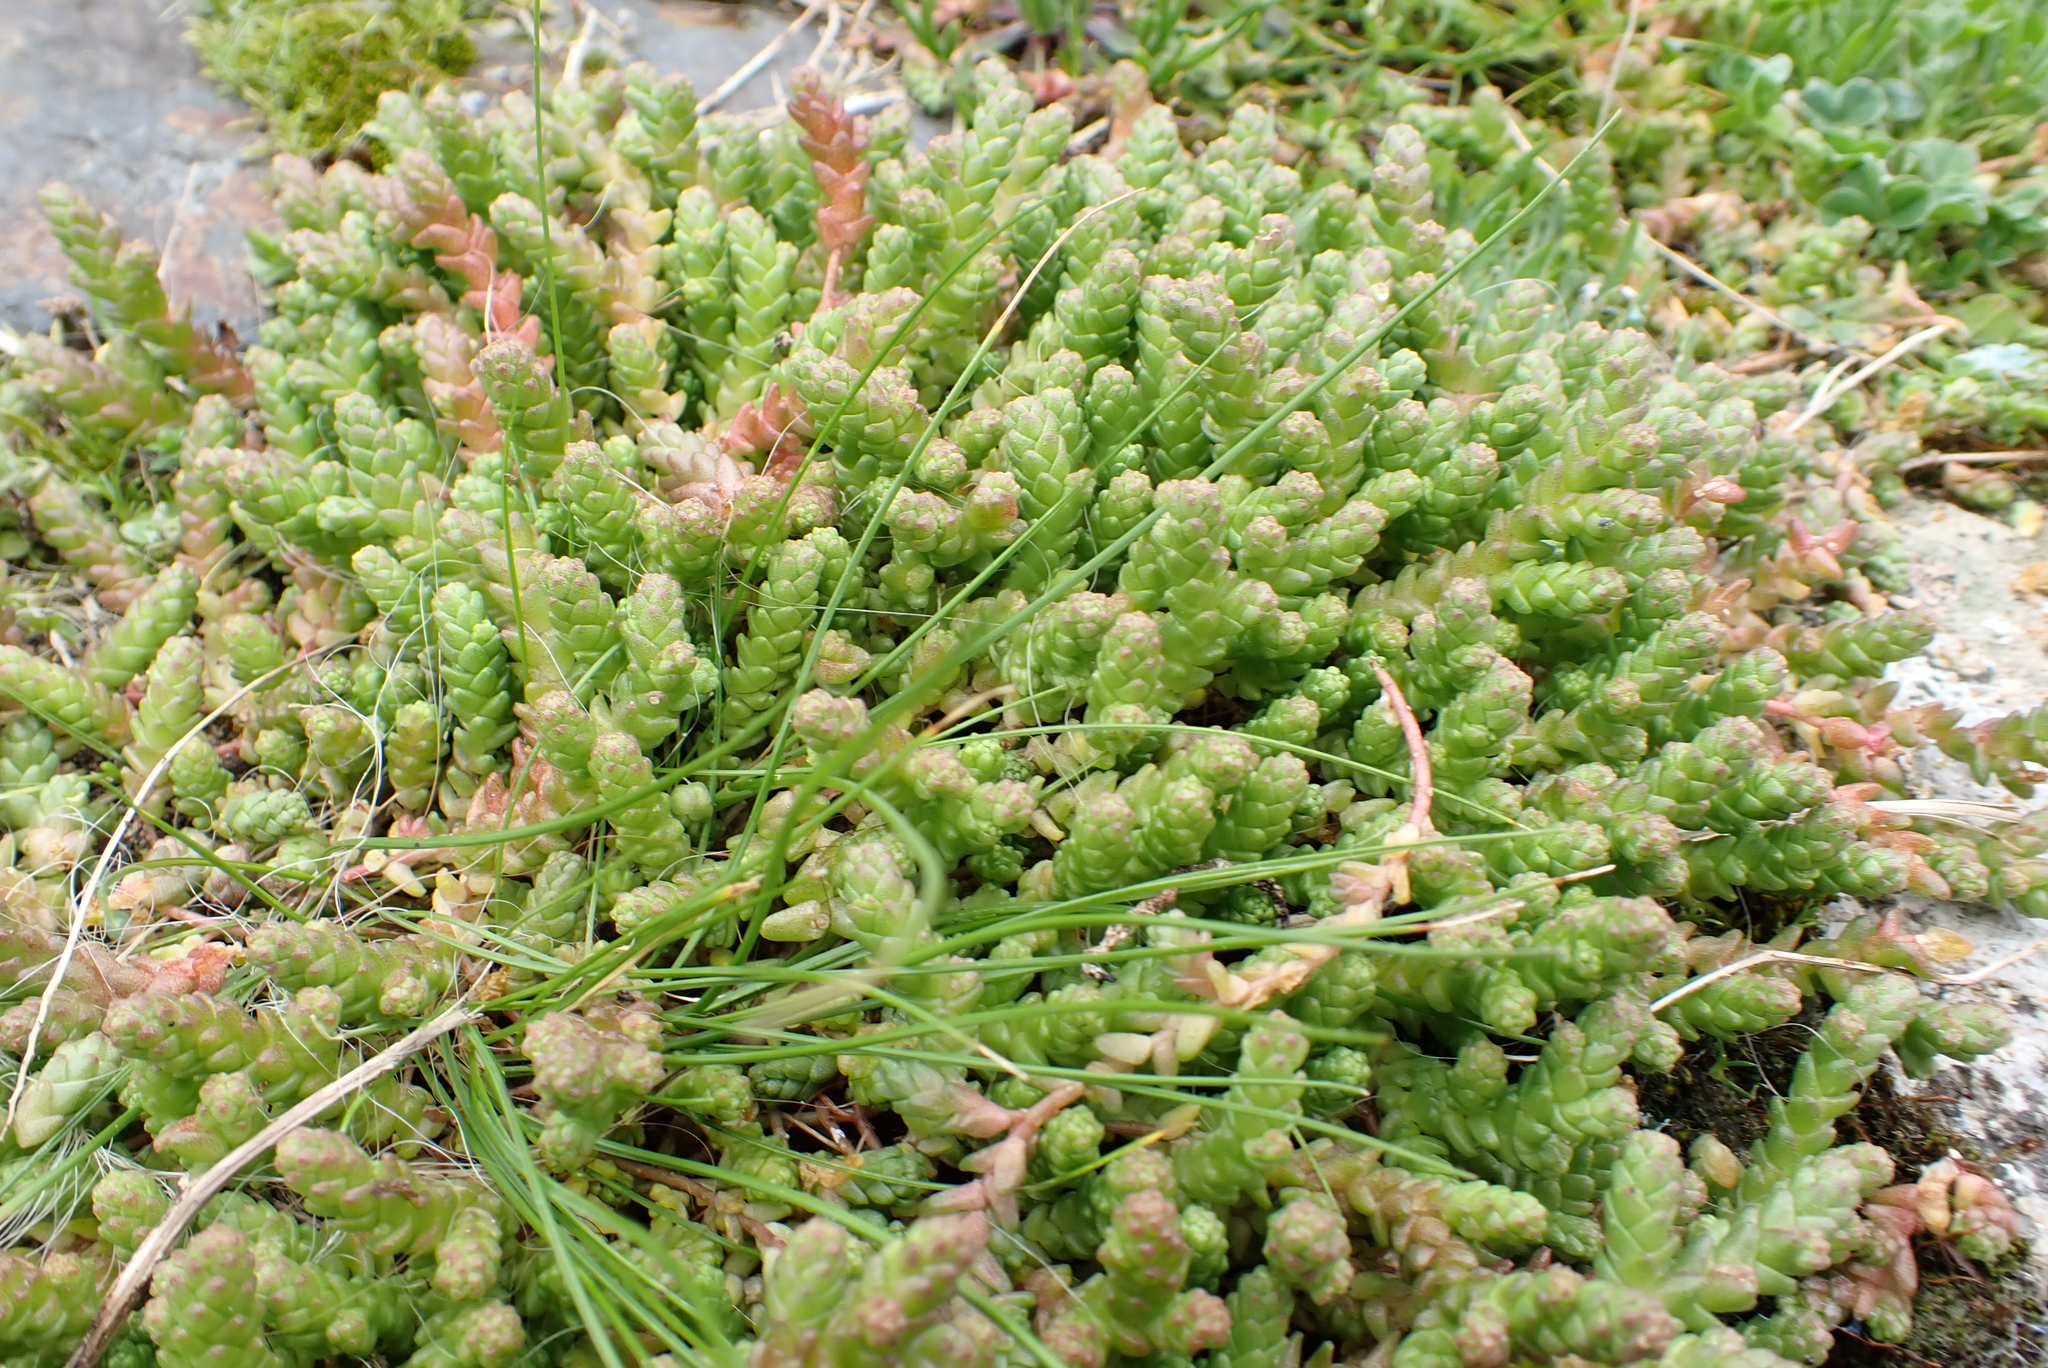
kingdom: Plantae
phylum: Tracheophyta
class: Magnoliopsida
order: Saxifragales
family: Crassulaceae
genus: Sedum
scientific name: Sedum acre
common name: Biting stonecrop
